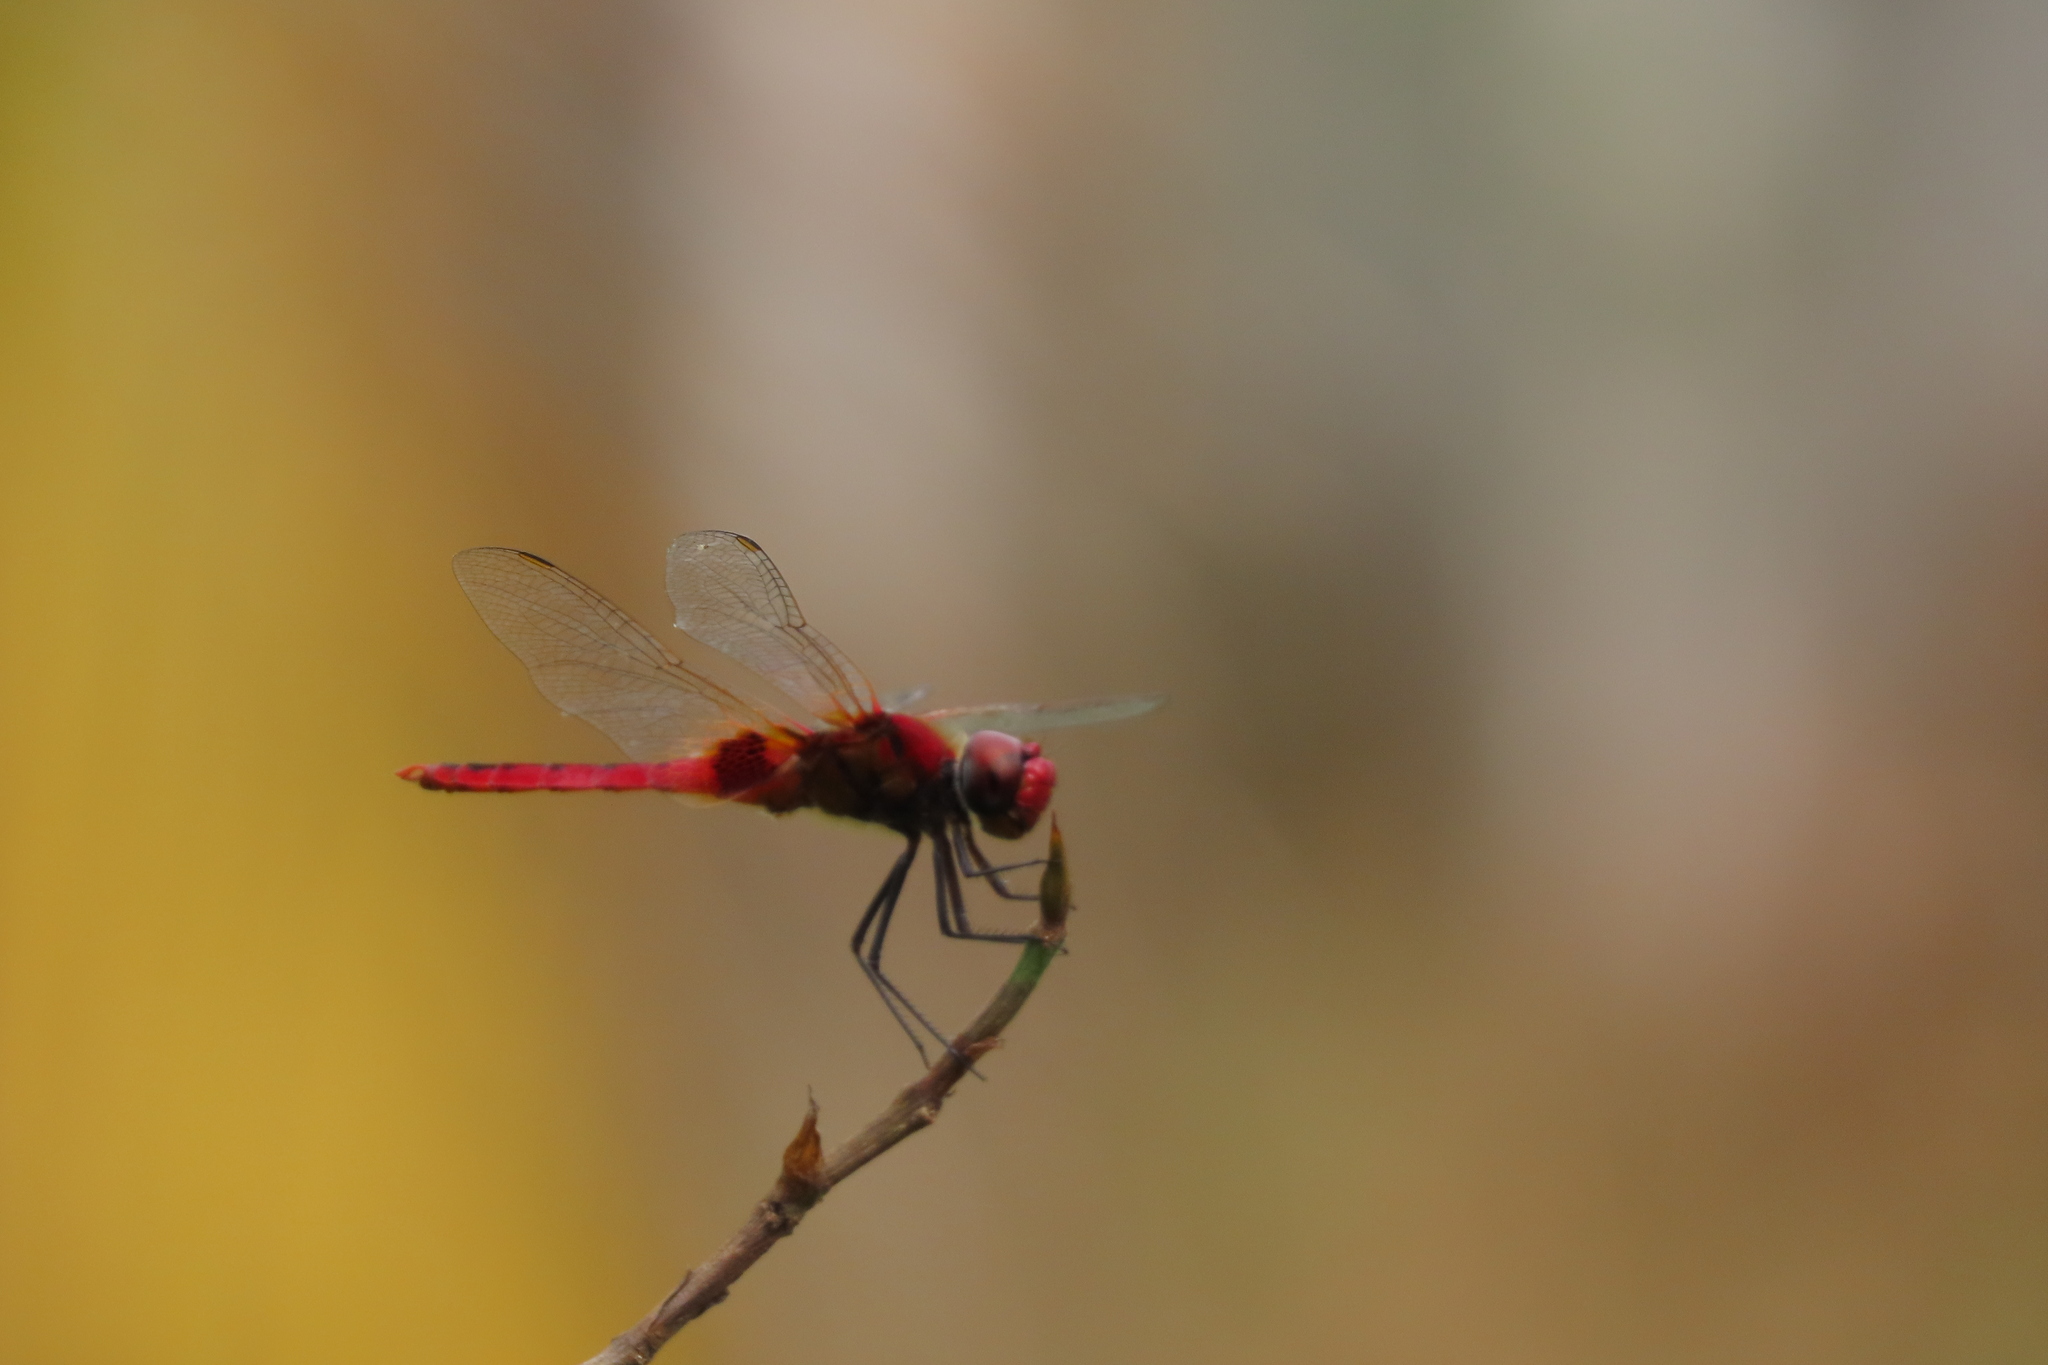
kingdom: Animalia
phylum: Arthropoda
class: Insecta
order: Odonata
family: Libellulidae
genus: Urothemis
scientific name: Urothemis signata
